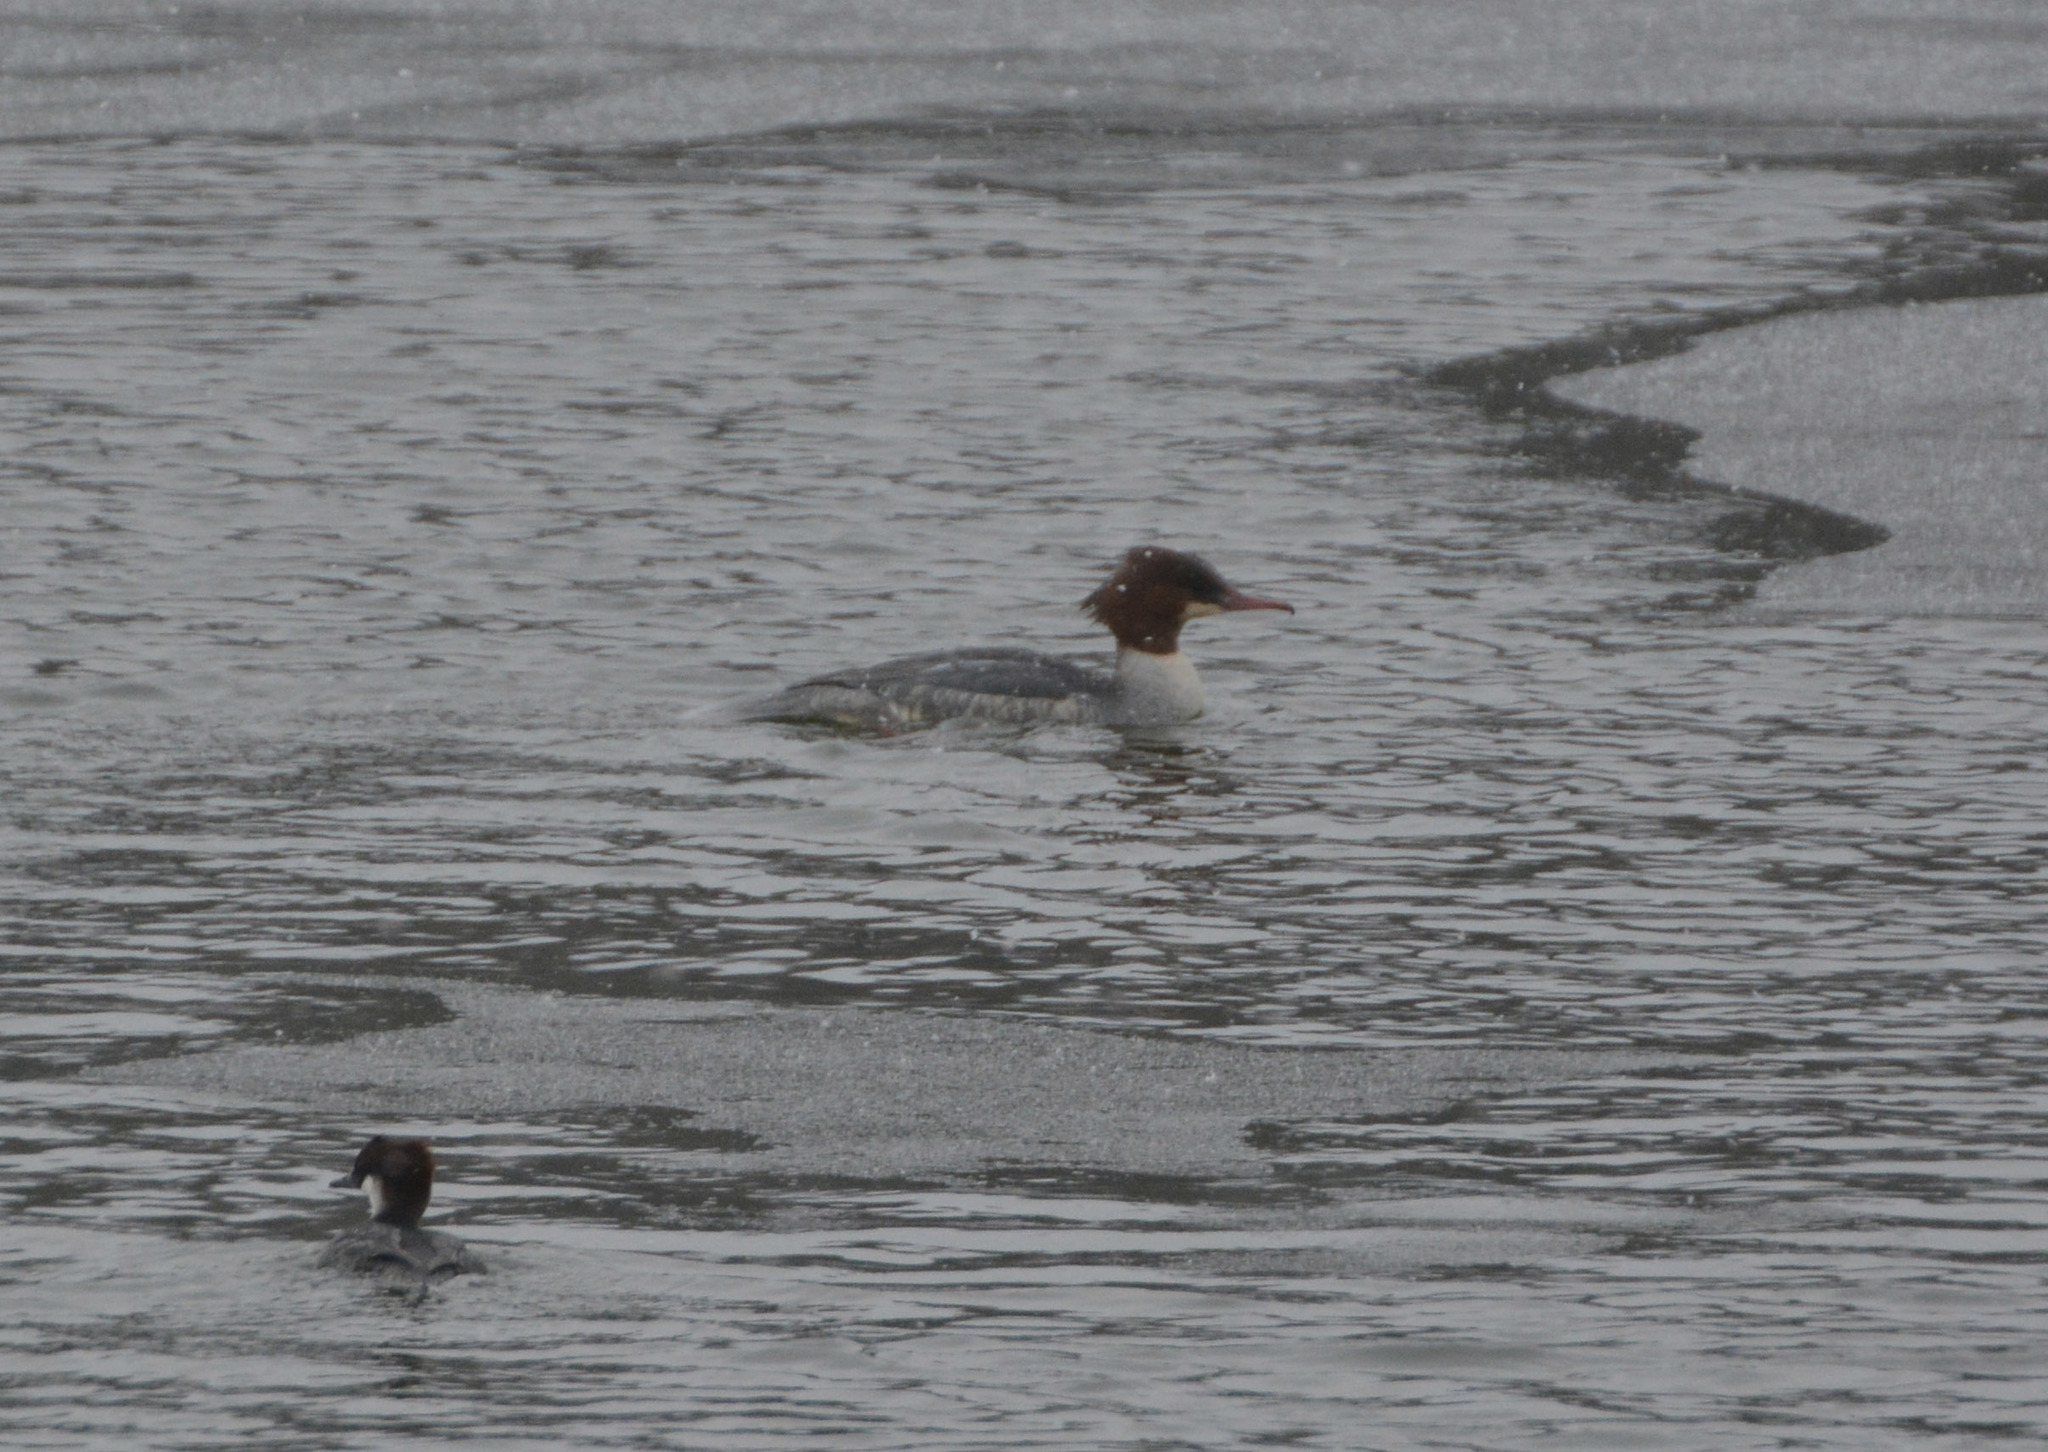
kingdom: Animalia
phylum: Chordata
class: Aves
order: Anseriformes
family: Anatidae
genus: Mergus
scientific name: Mergus merganser
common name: Common merganser
